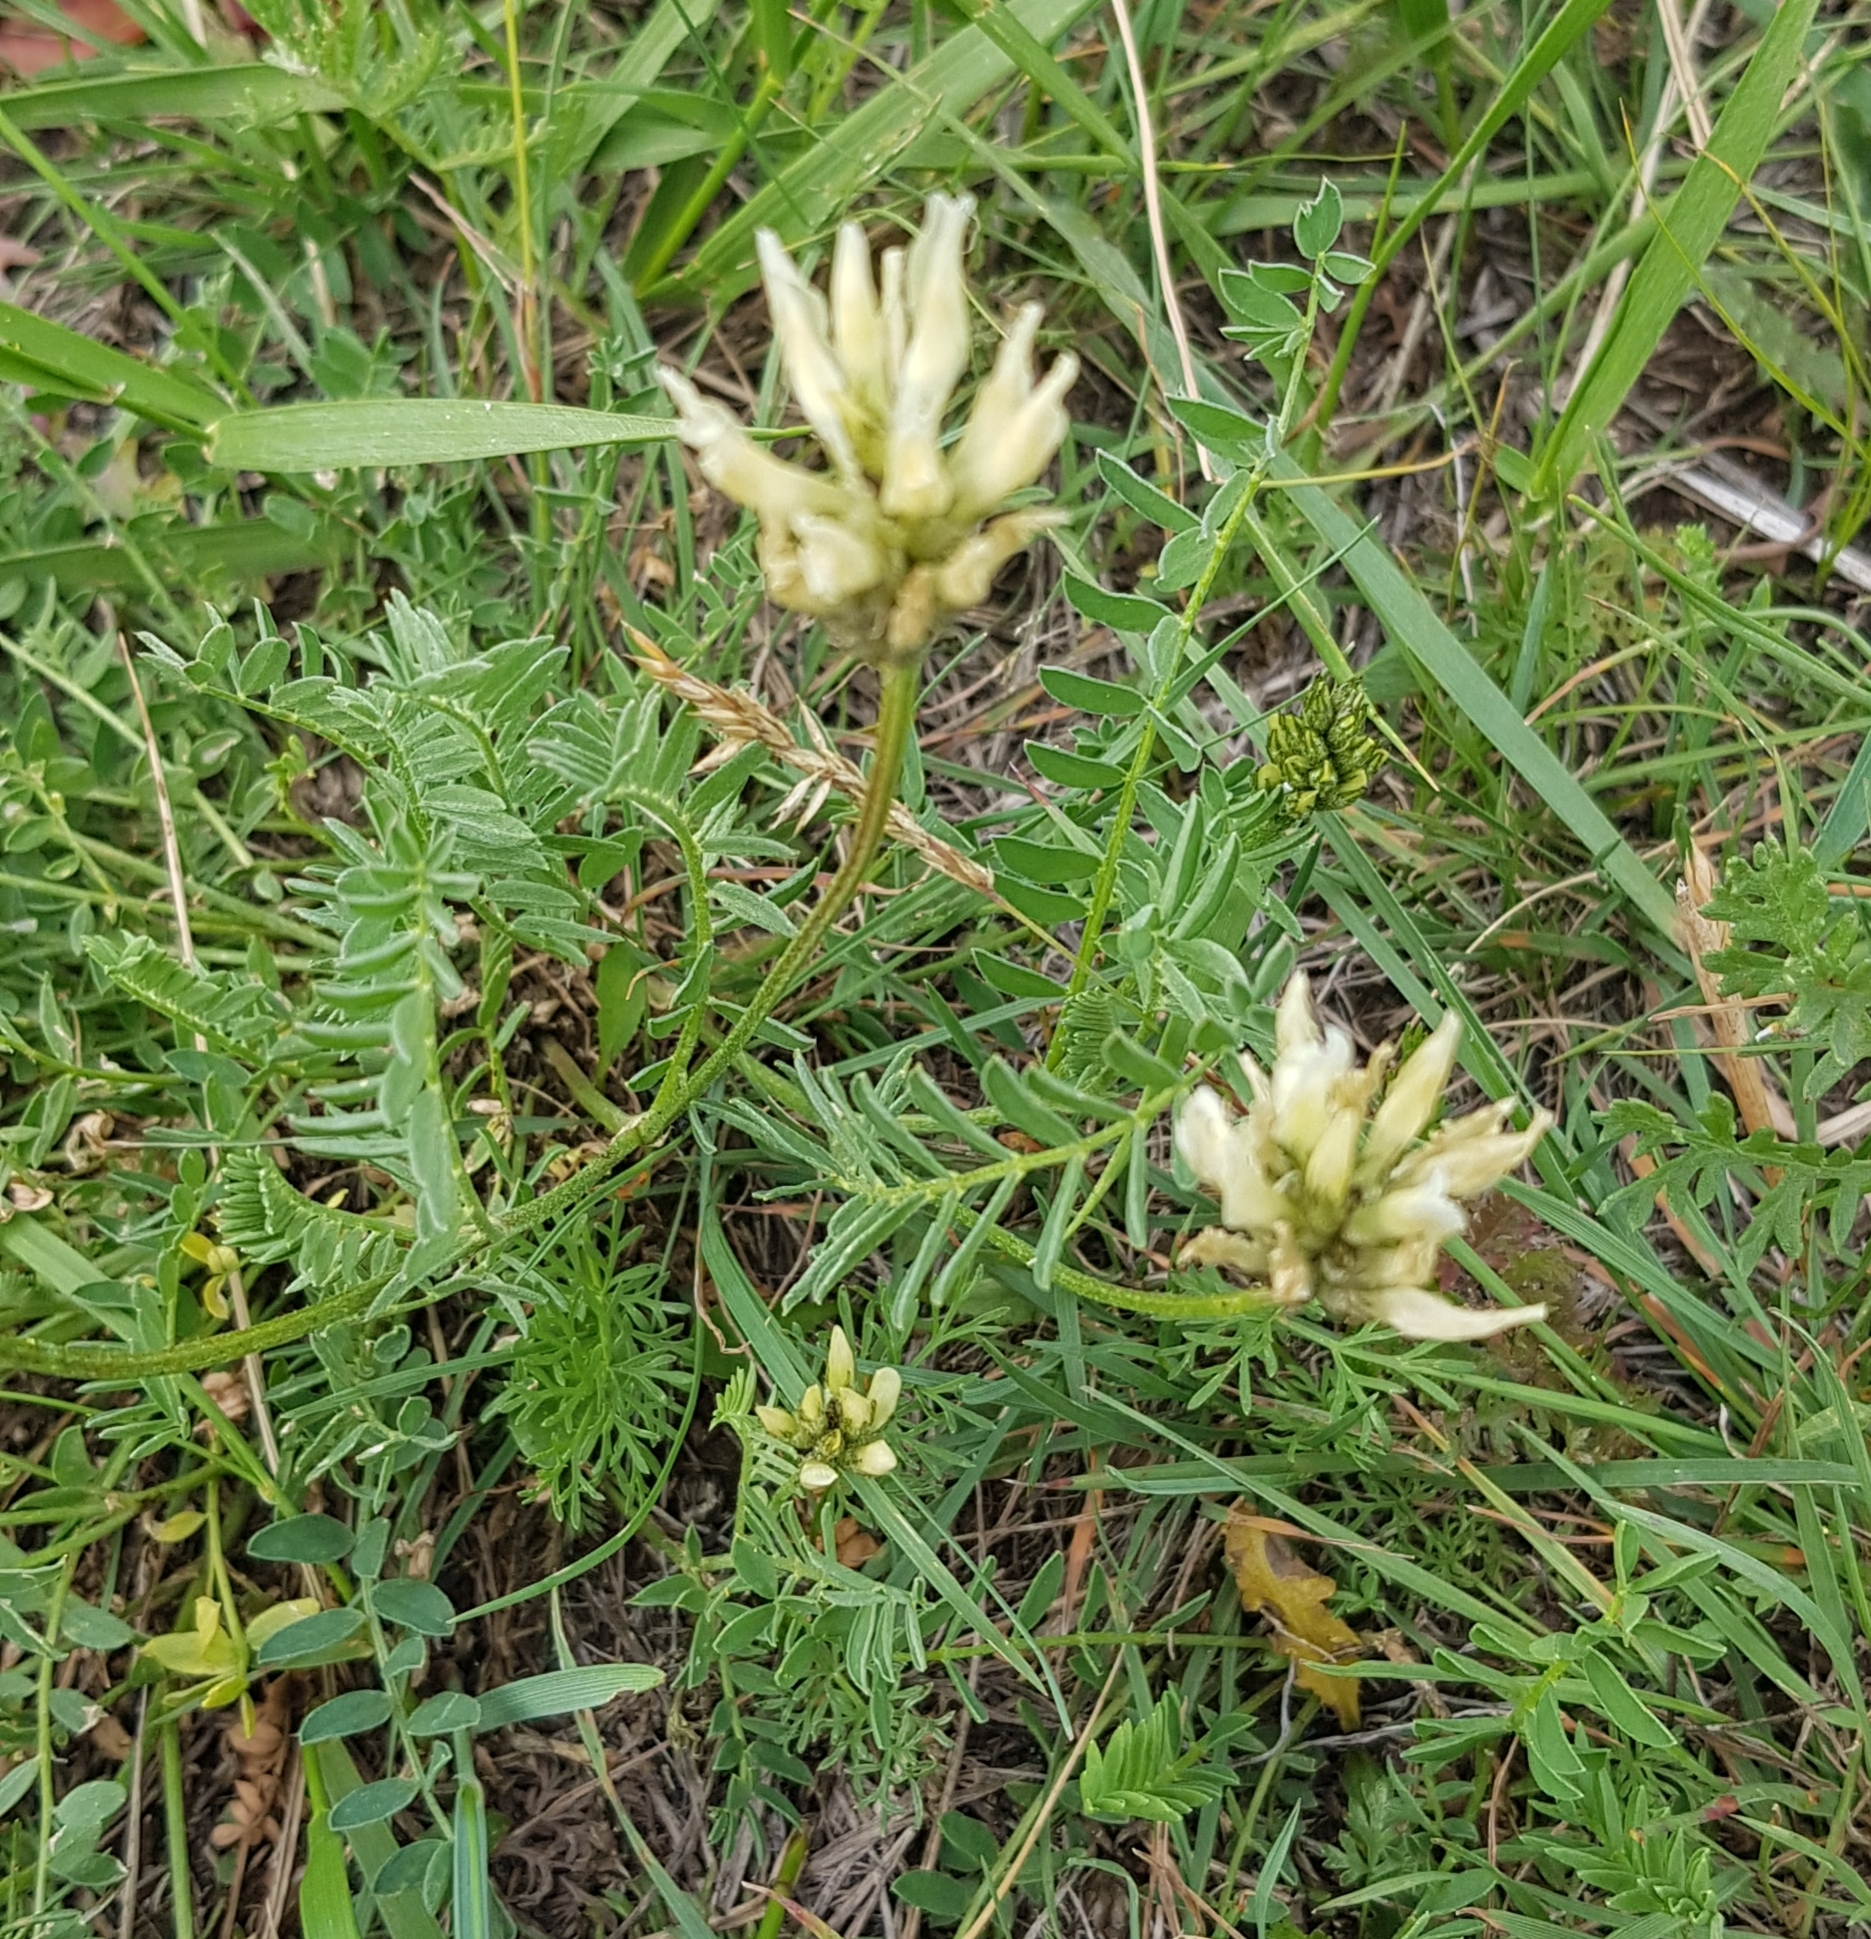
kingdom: Plantae
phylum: Tracheophyta
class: Magnoliopsida
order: Fabales
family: Fabaceae
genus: Astragalus
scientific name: Astragalus laxmannii
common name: Laxmann's milk-vetch
